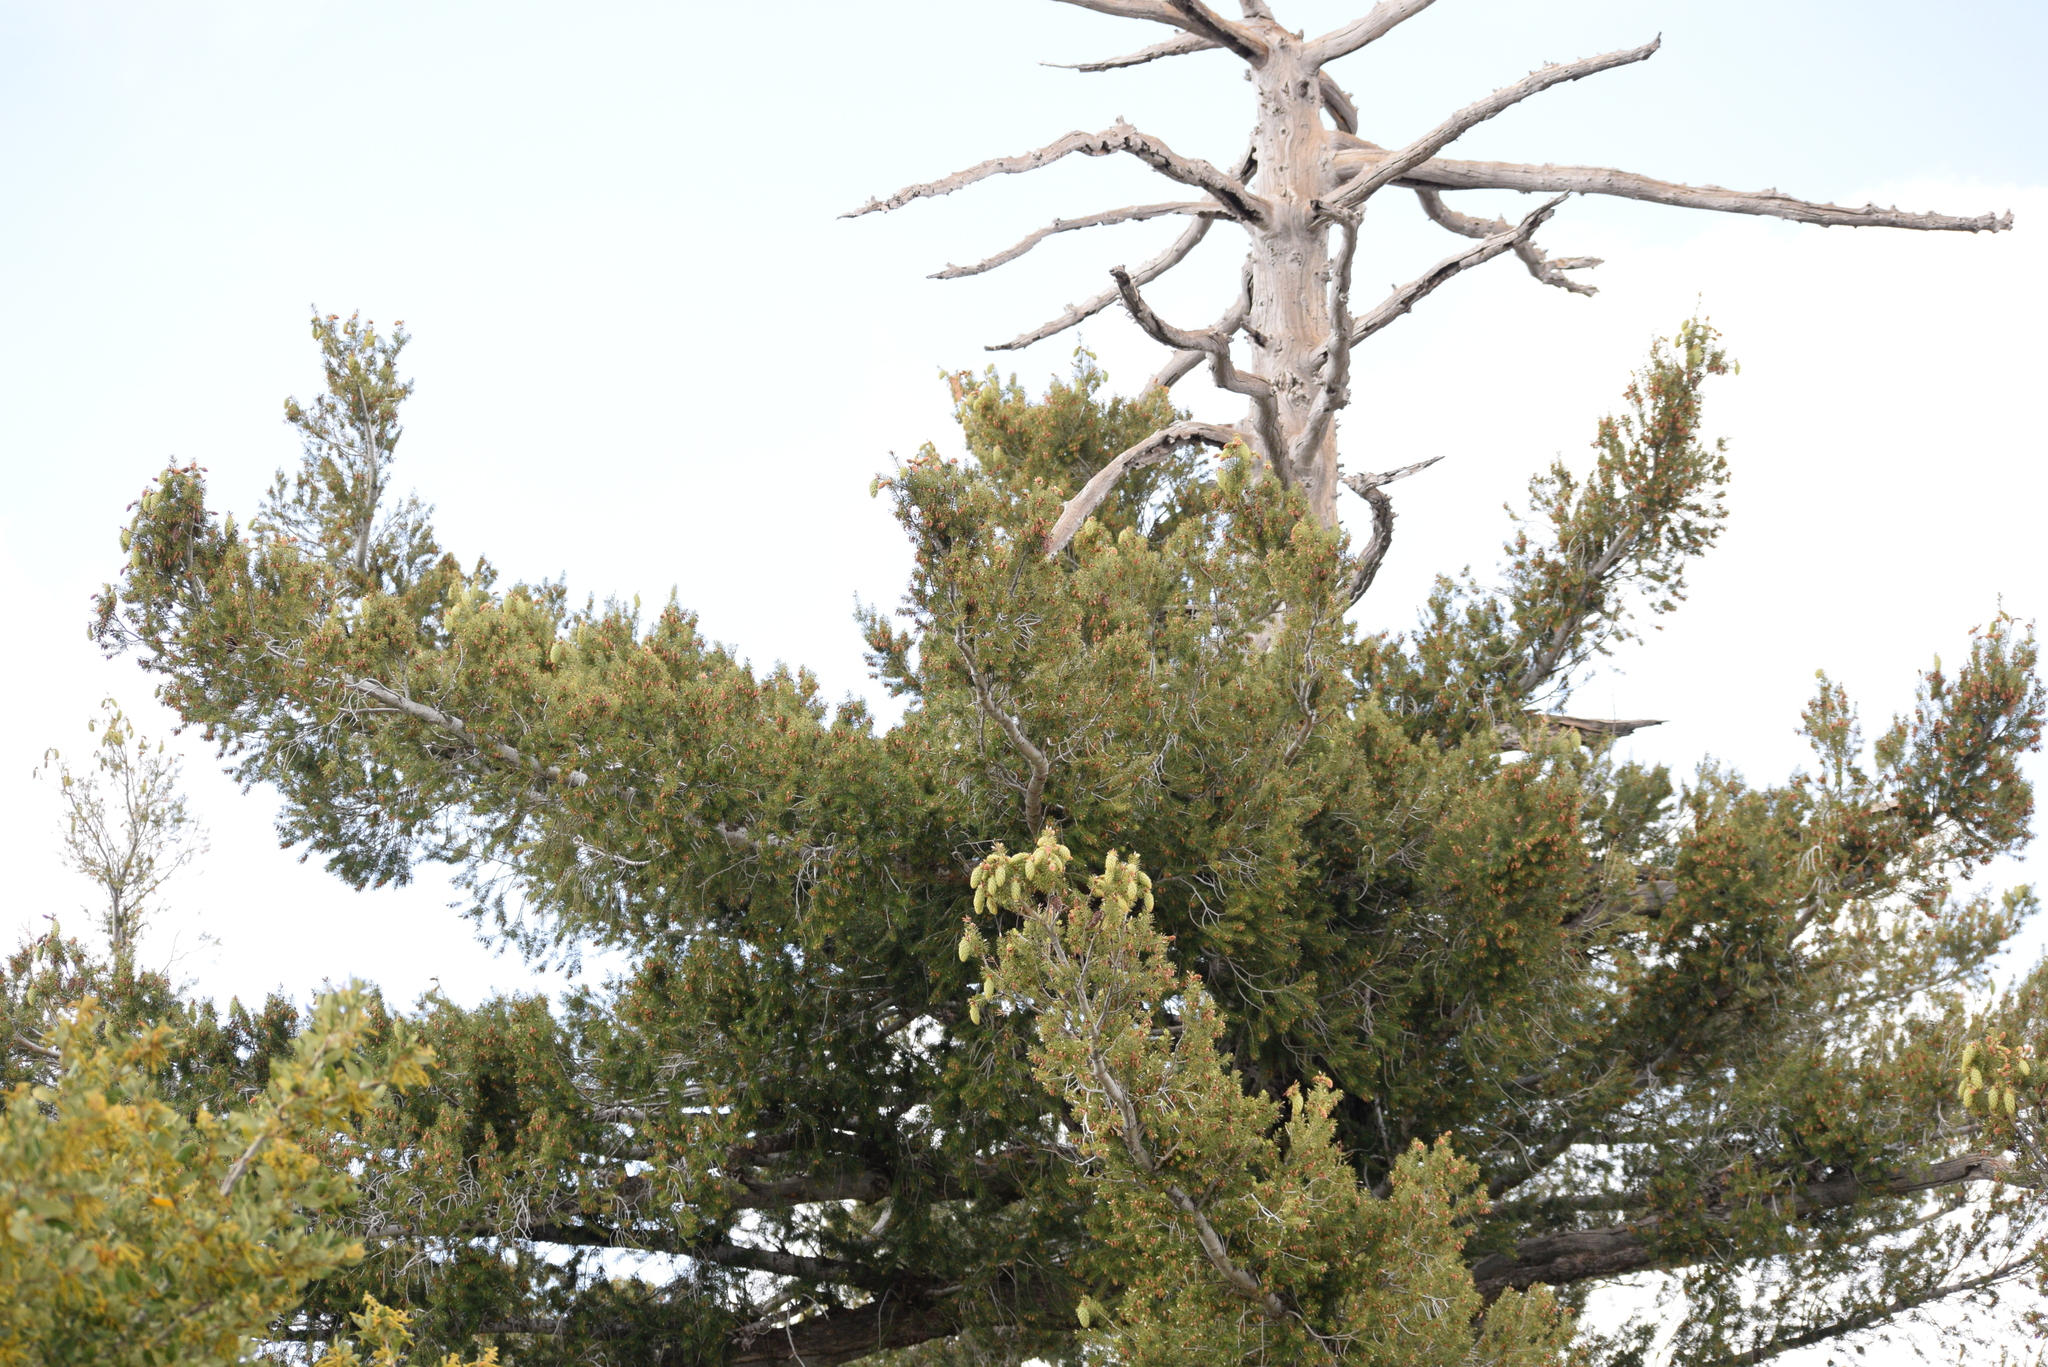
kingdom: Plantae
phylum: Tracheophyta
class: Pinopsida
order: Pinales
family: Pinaceae
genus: Pseudotsuga
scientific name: Pseudotsuga macrocarpa
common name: Big-cone douglas-fir
